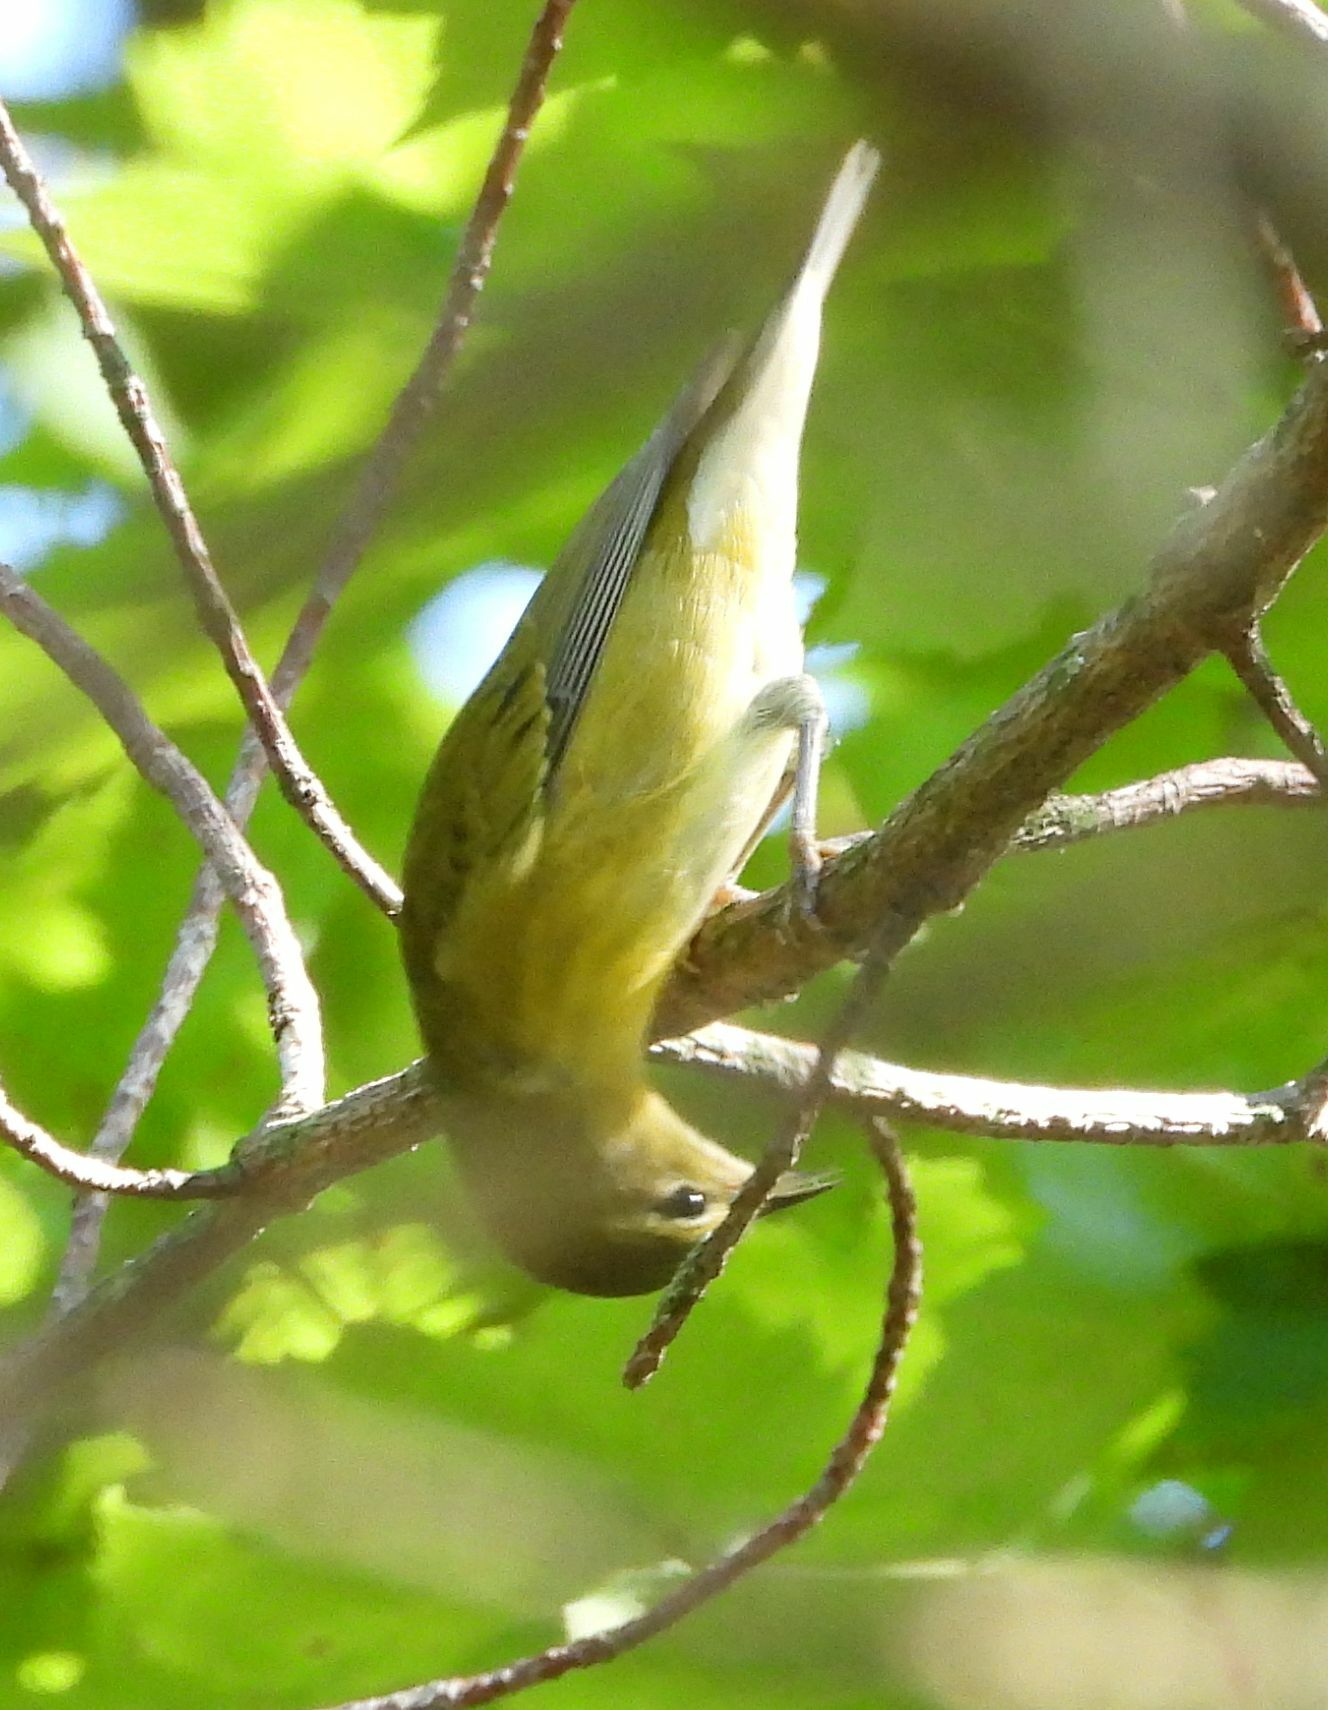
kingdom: Animalia
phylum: Chordata
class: Aves
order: Passeriformes
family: Parulidae
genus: Leiothlypis
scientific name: Leiothlypis peregrina
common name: Tennessee warbler
